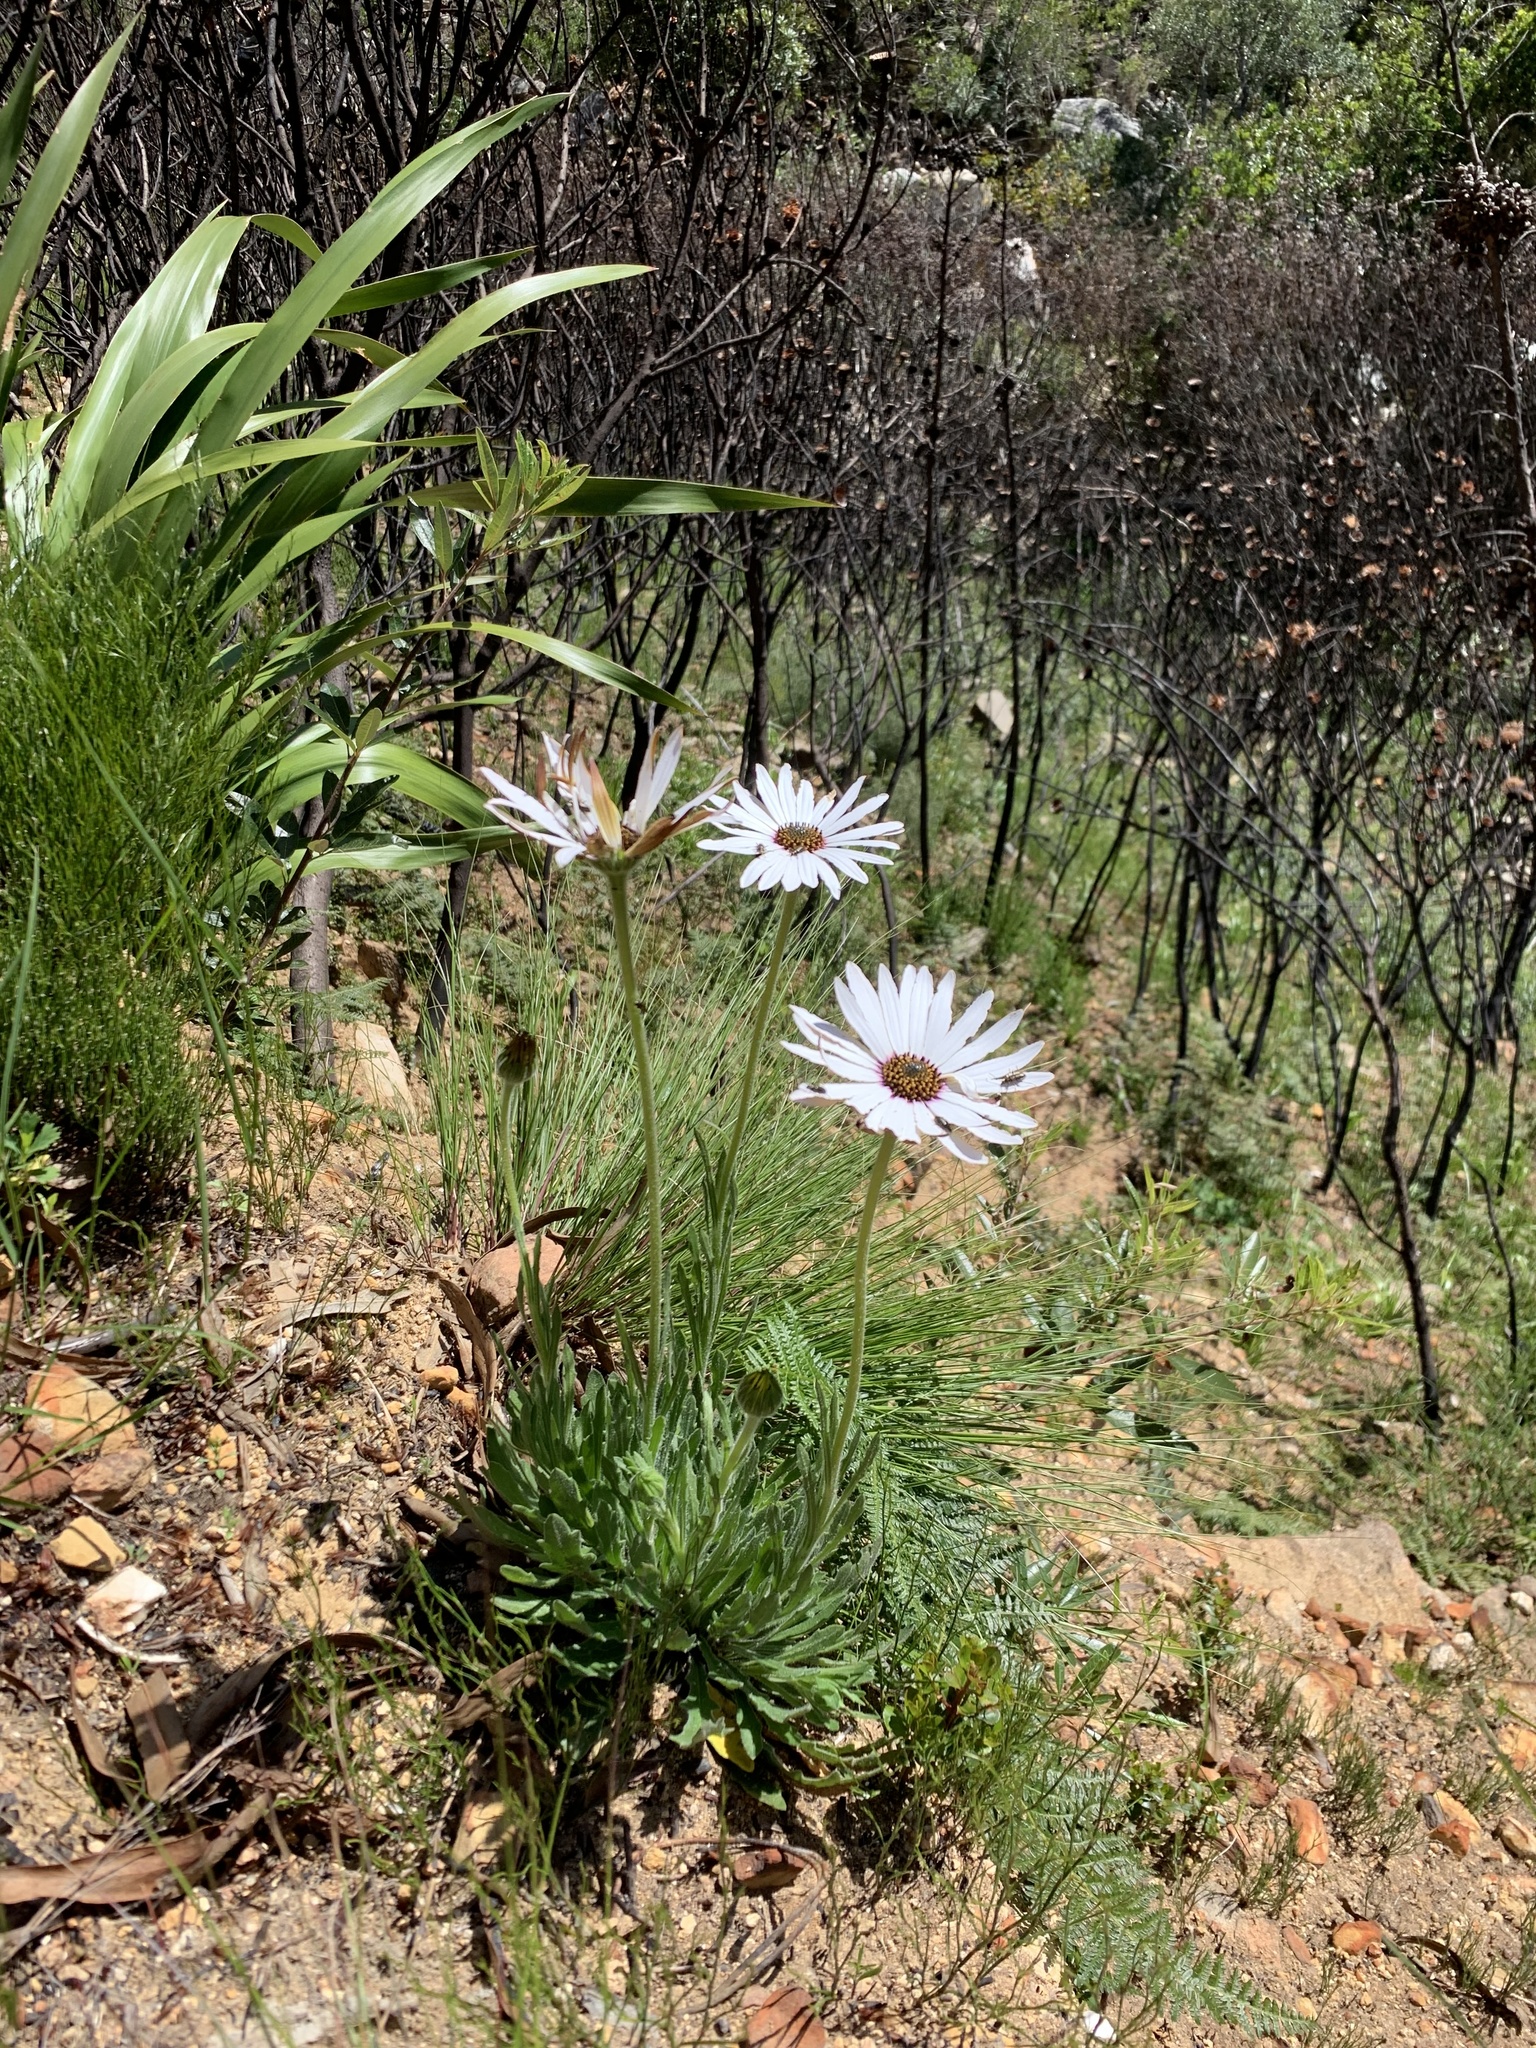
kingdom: Plantae
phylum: Tracheophyta
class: Magnoliopsida
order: Asterales
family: Asteraceae
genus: Dimorphotheca
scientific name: Dimorphotheca nudicaulis
